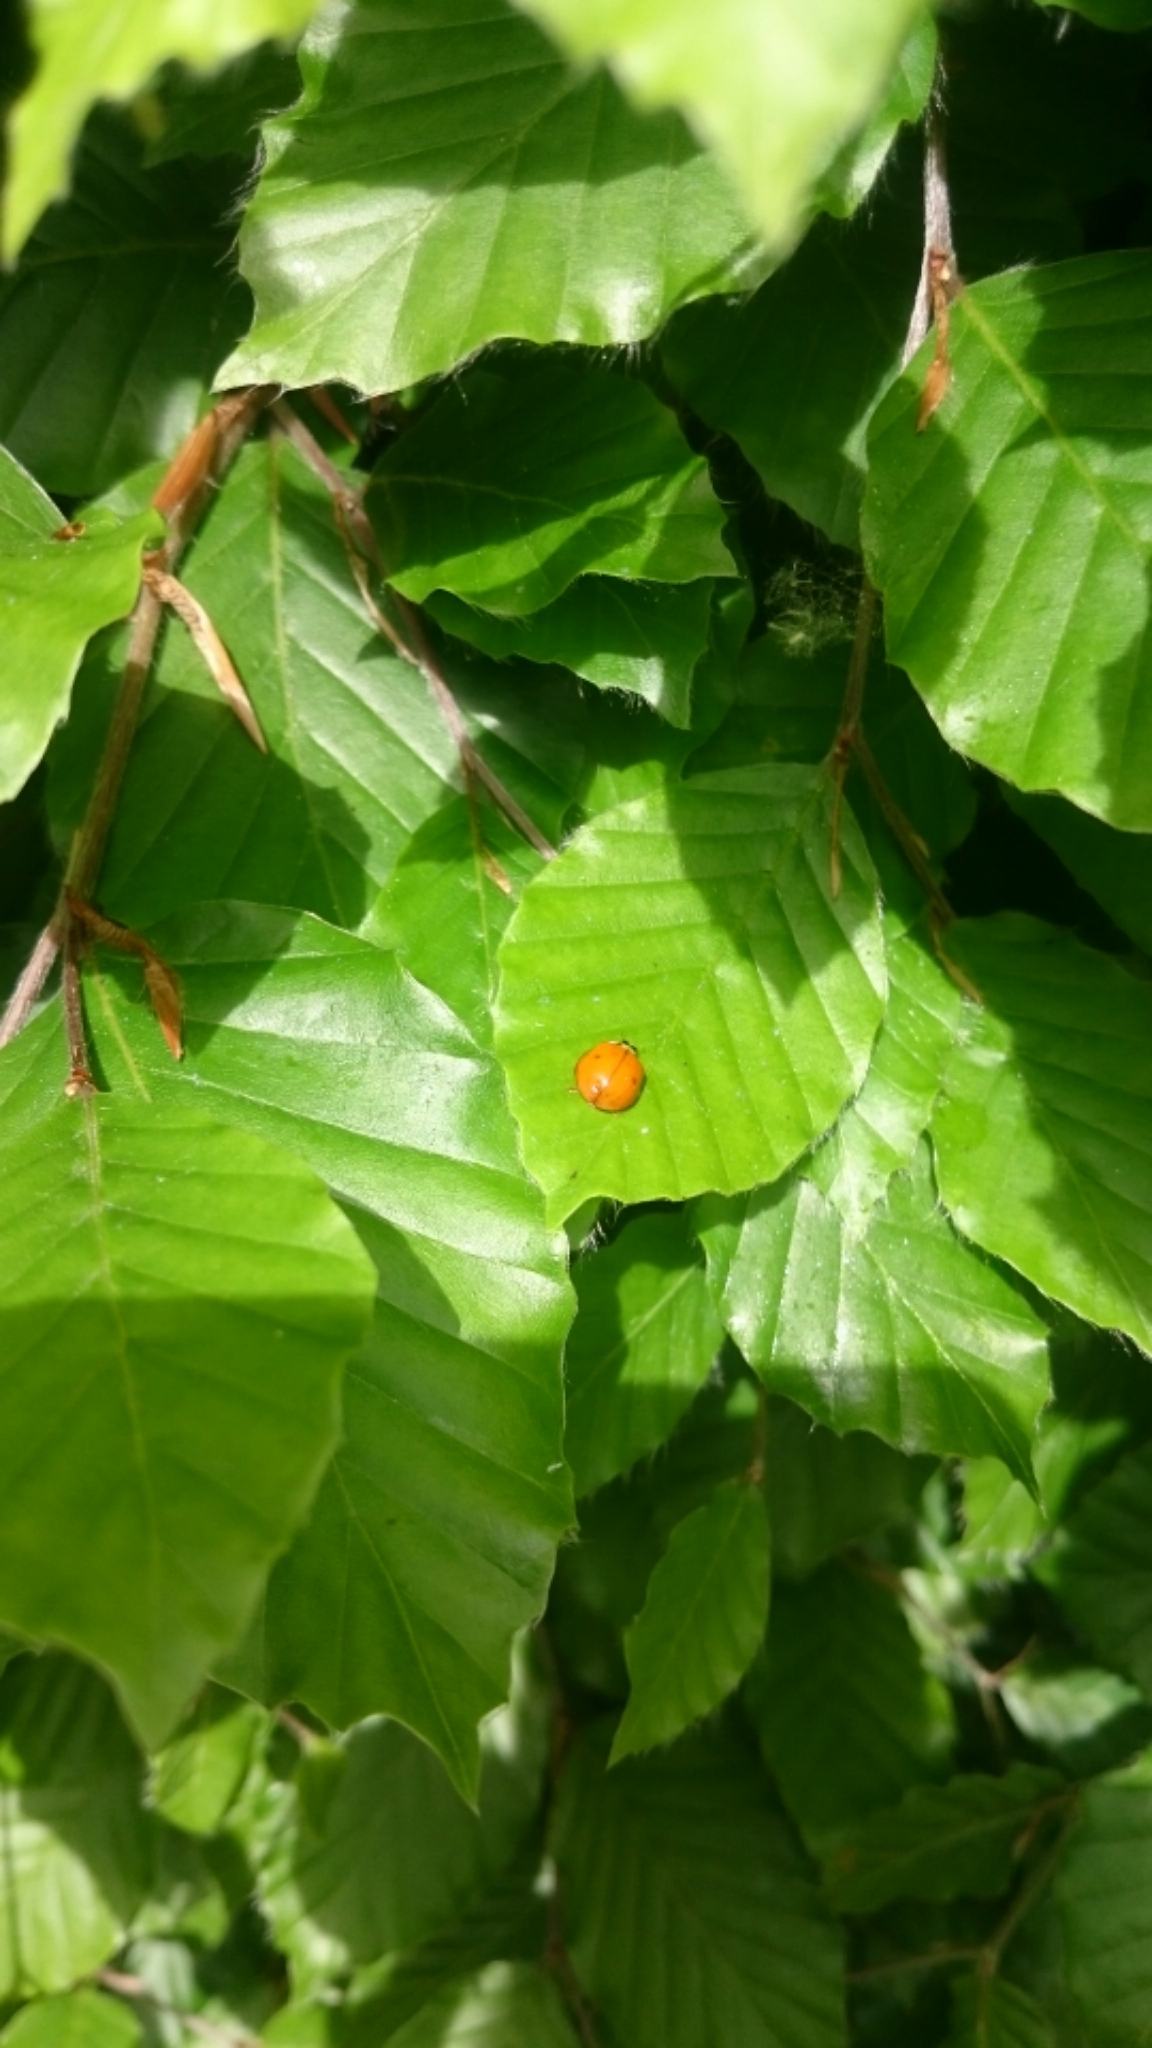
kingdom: Animalia
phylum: Arthropoda
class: Insecta
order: Coleoptera
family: Coccinellidae
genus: Harmonia
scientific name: Harmonia axyridis
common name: Harlequin ladybird
